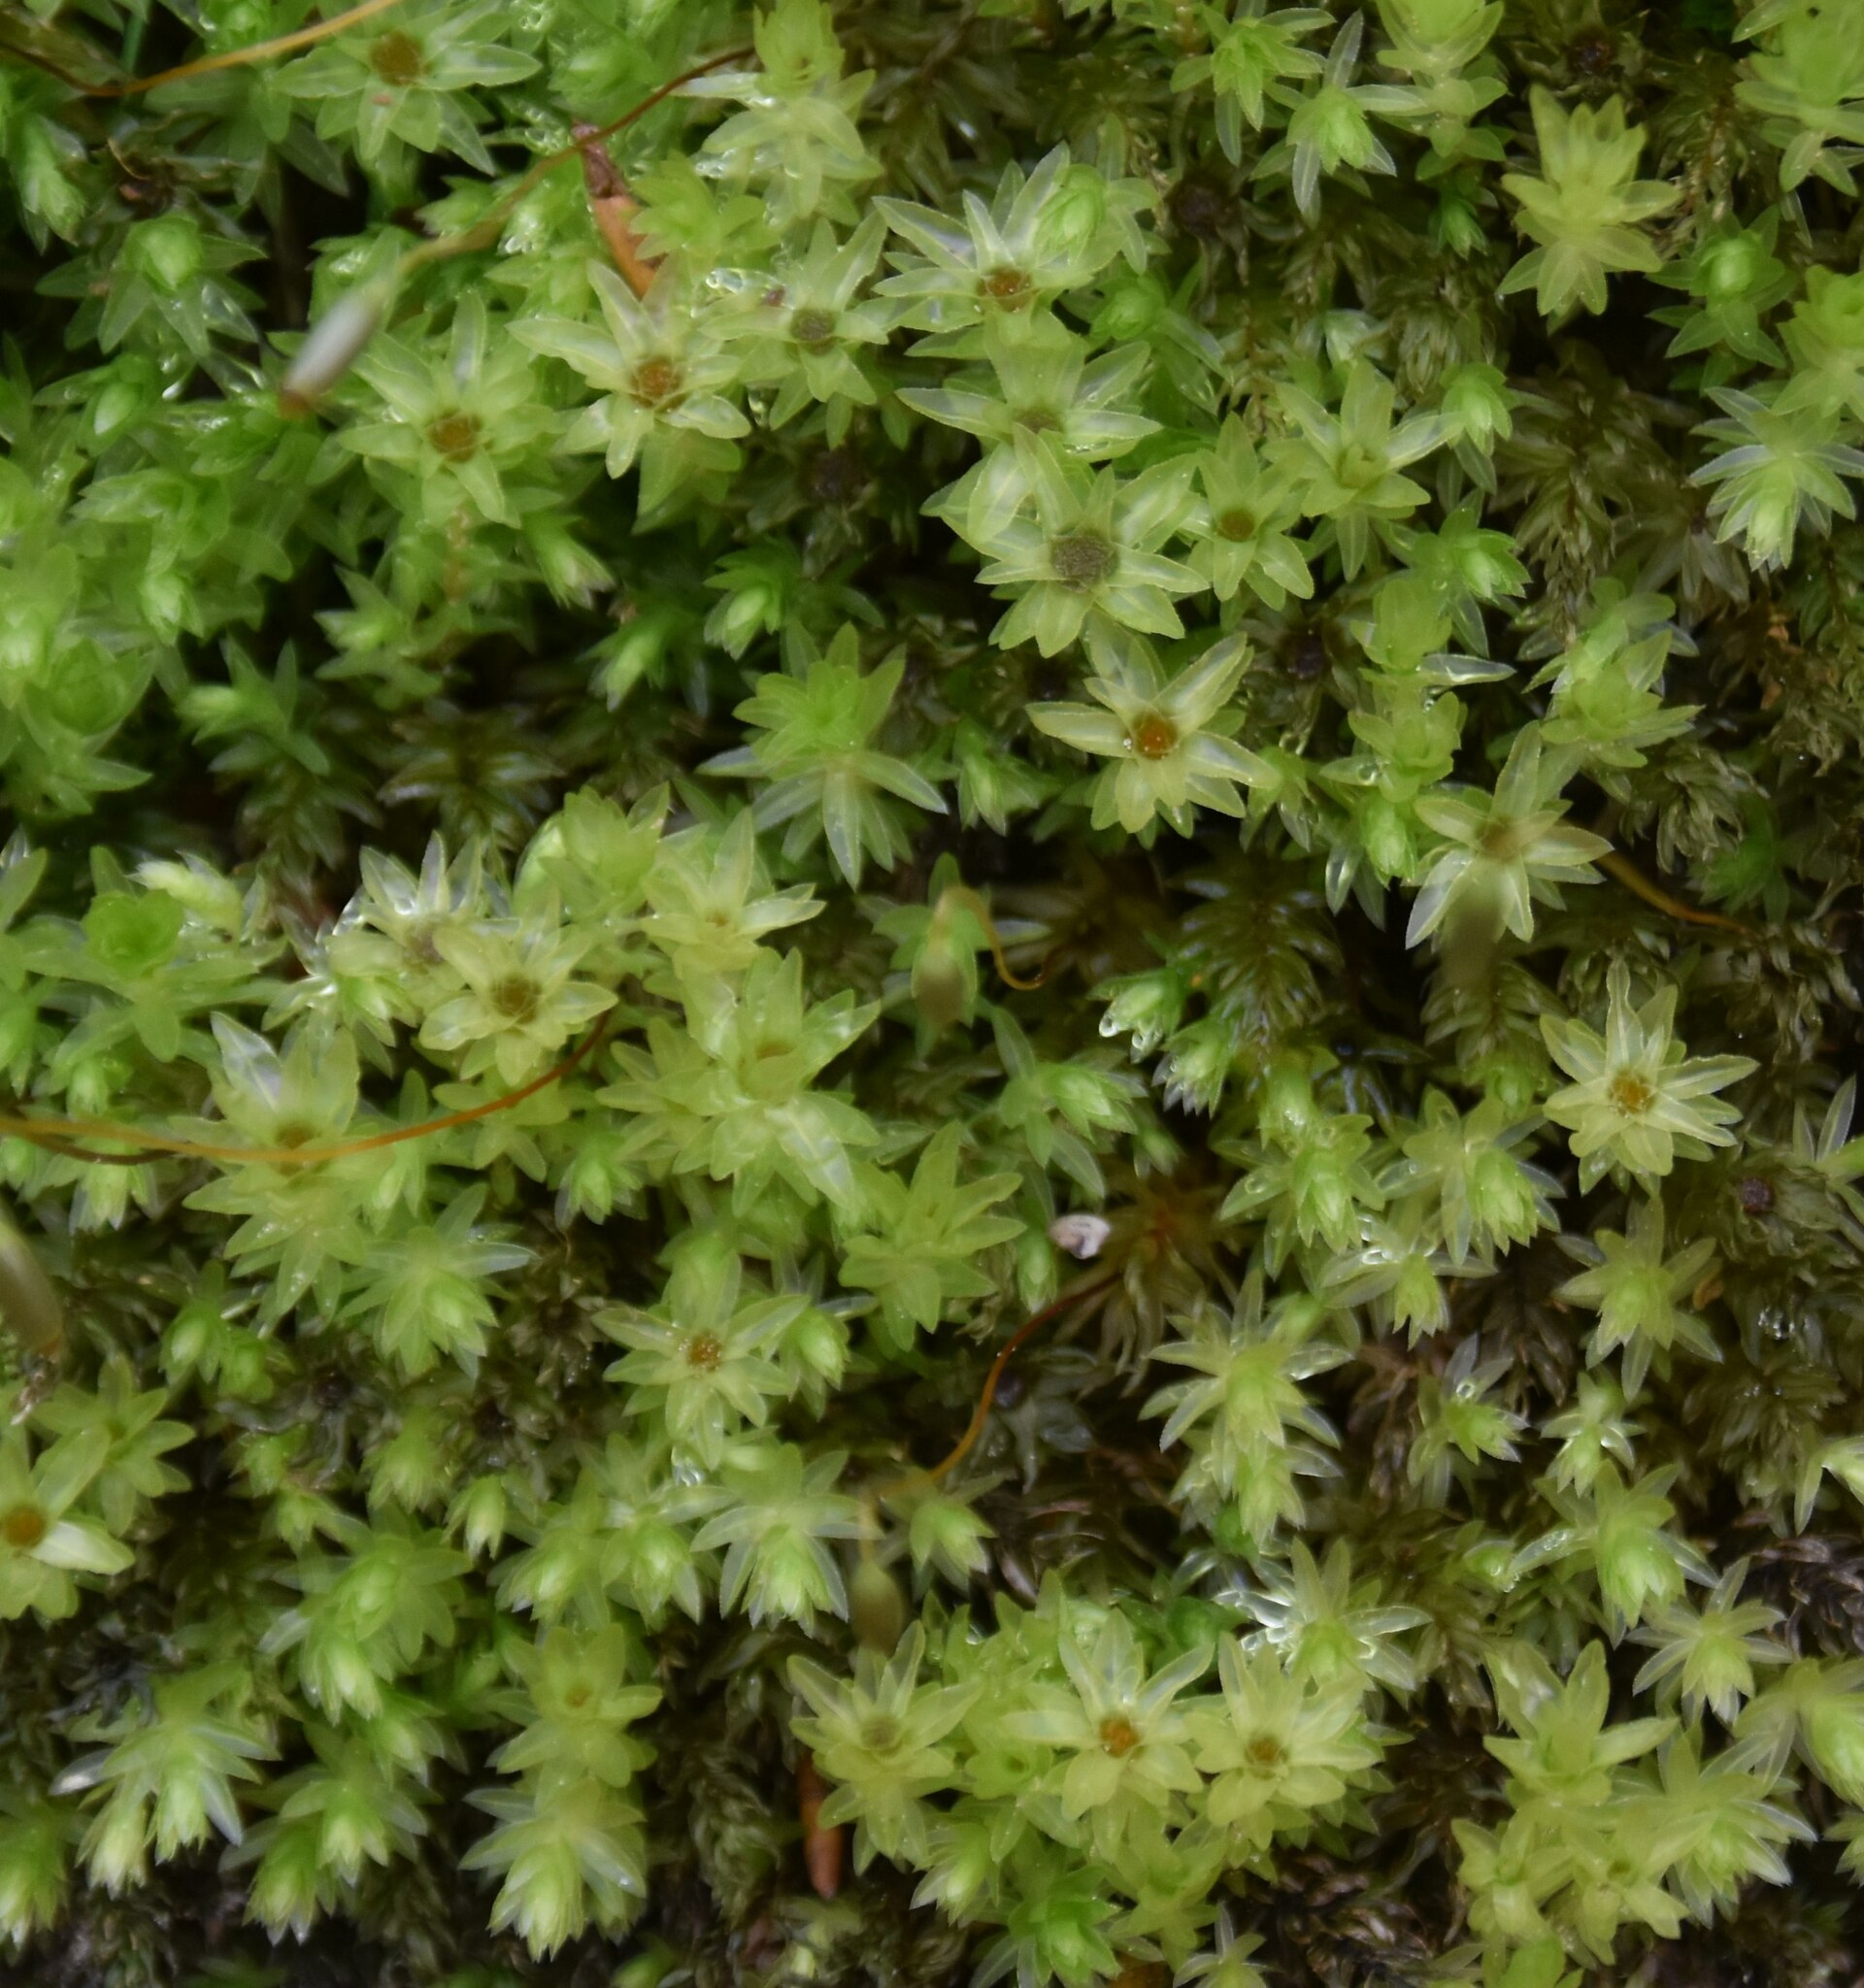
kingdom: Plantae
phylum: Bryophyta
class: Bryopsida
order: Bryales
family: Mniaceae
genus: Mnium
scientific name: Mnium hornum
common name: Swan's-neck leafy moss
